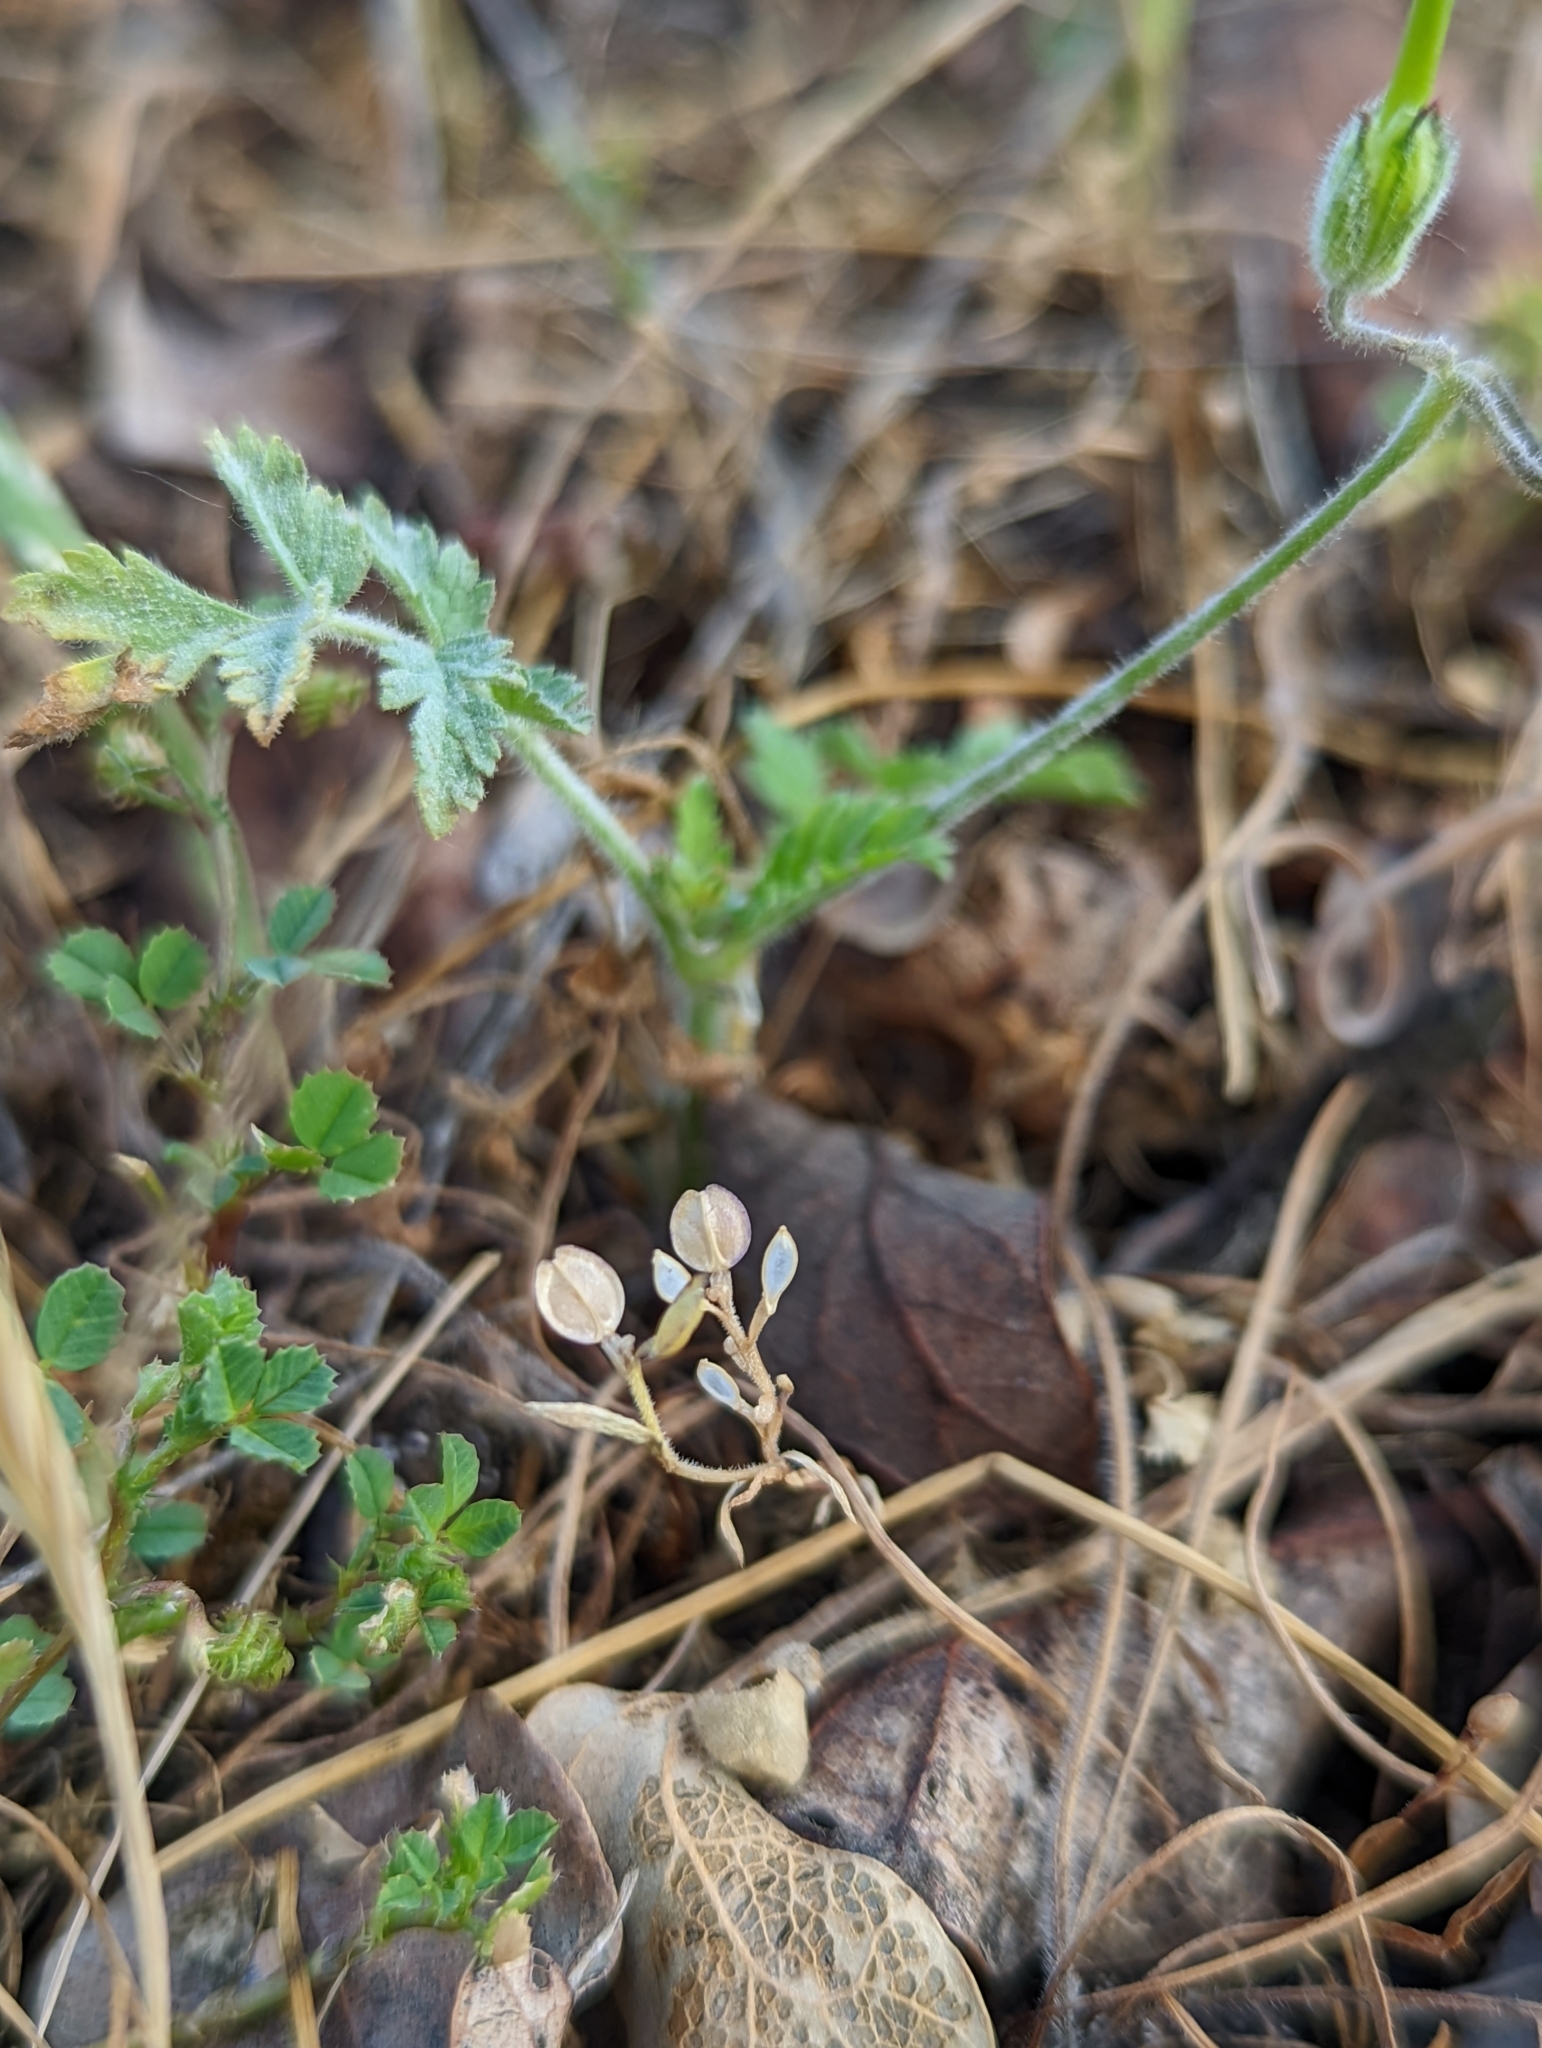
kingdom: Plantae
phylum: Tracheophyta
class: Magnoliopsida
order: Brassicales
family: Brassicaceae
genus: Lepidium
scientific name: Lepidium nitidum
